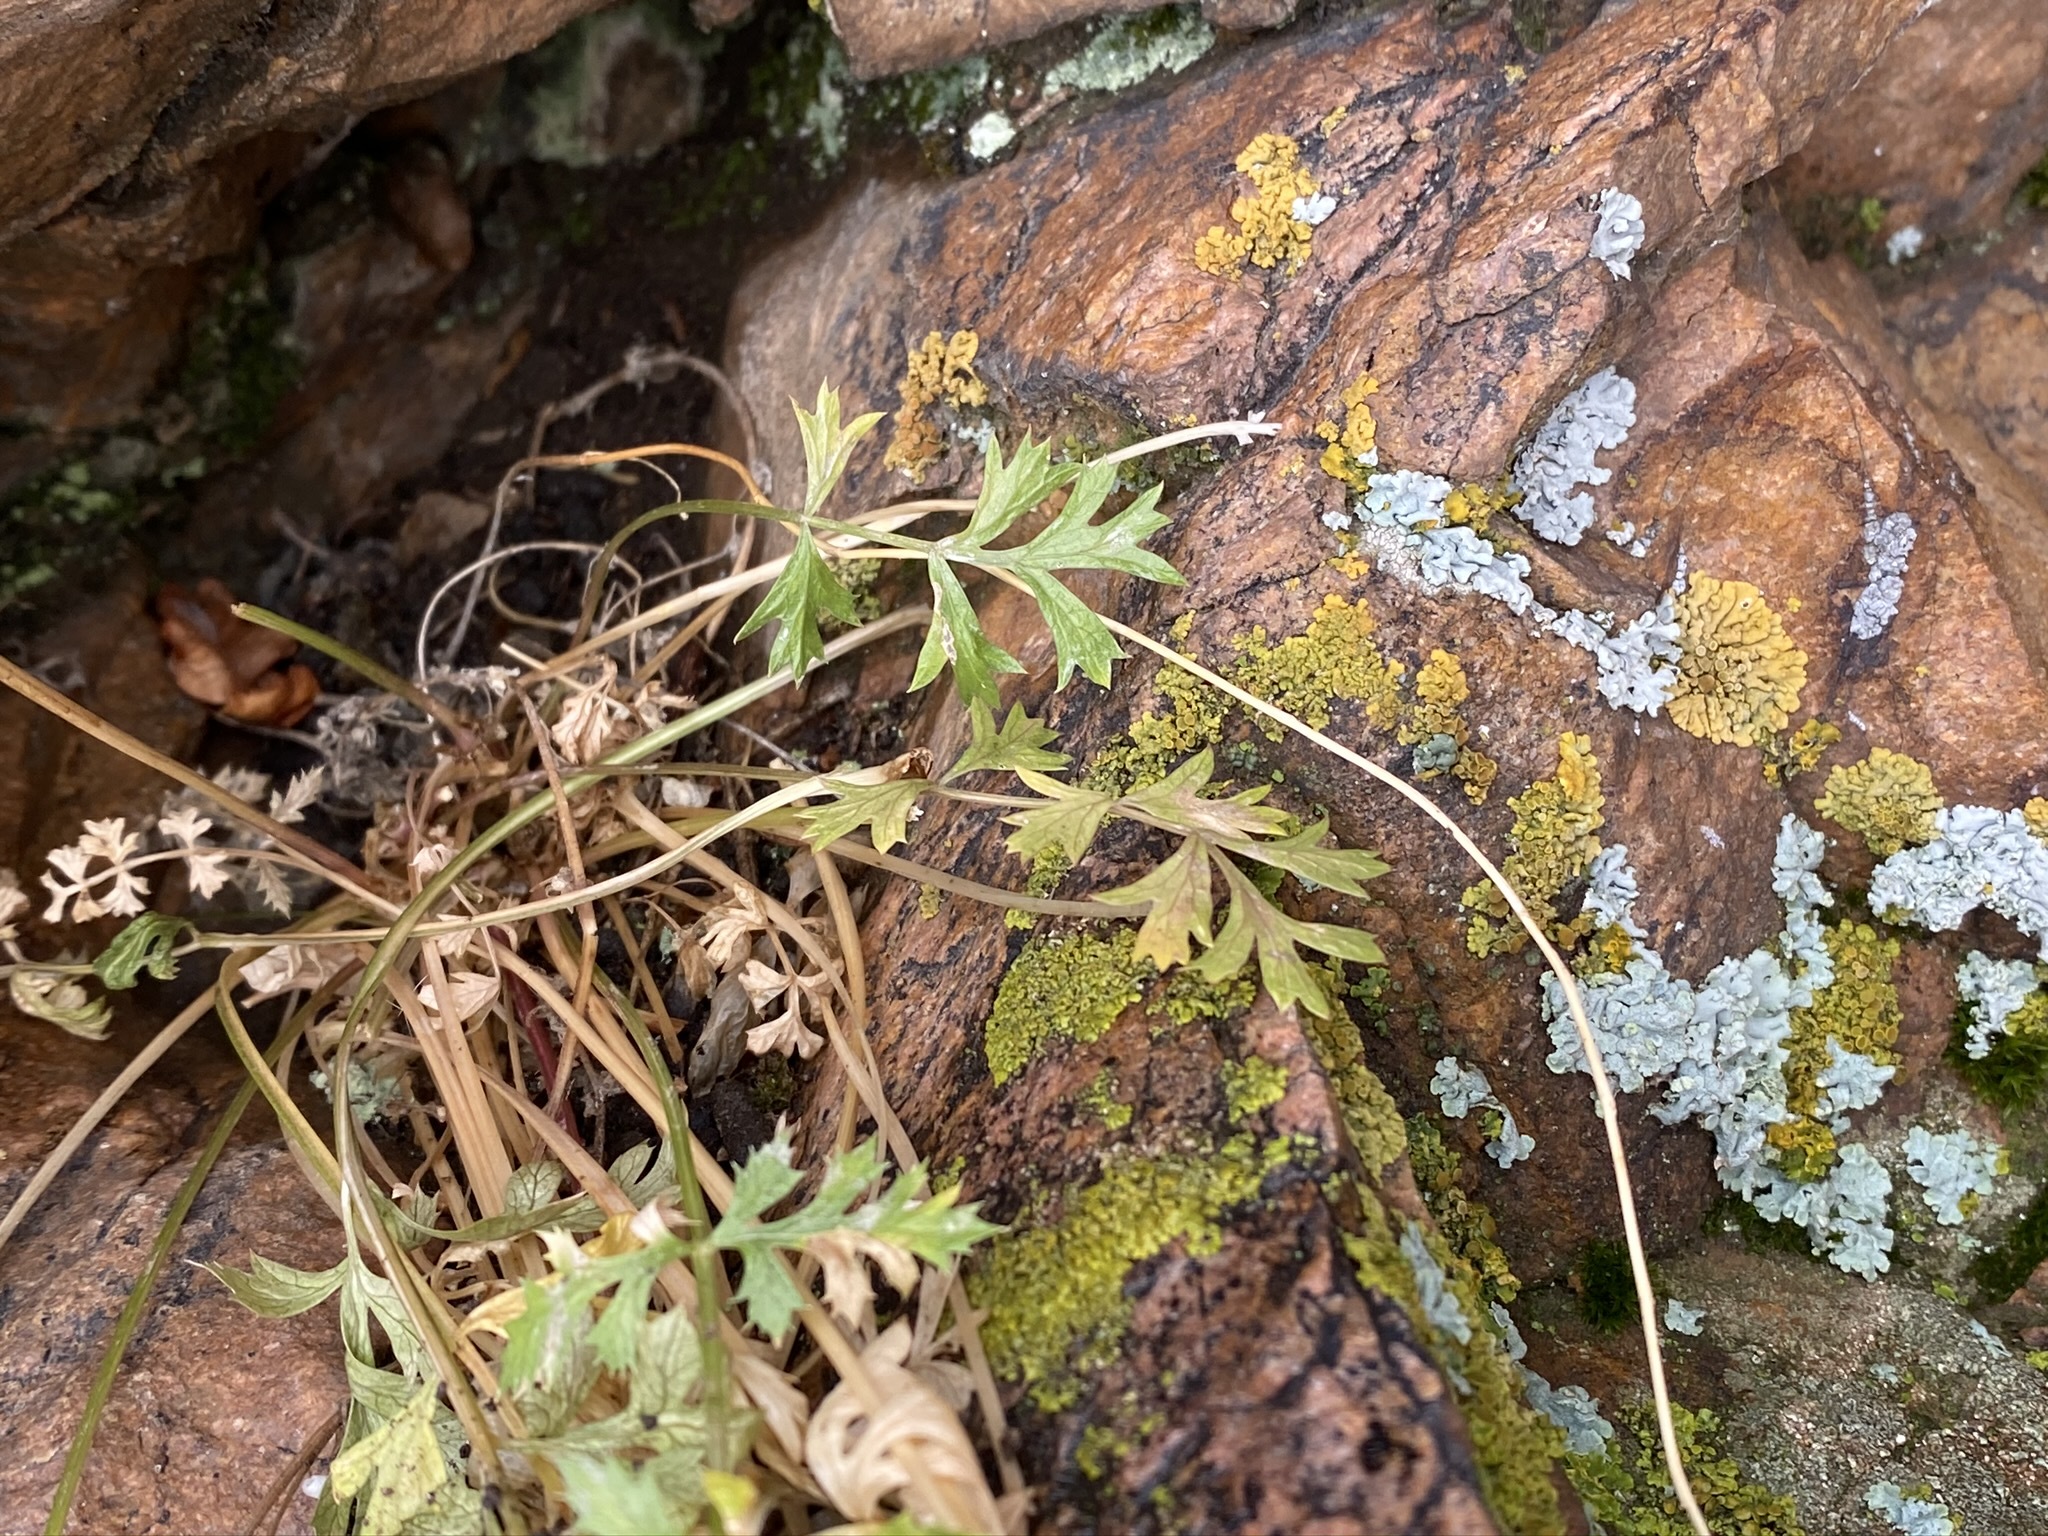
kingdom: Plantae
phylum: Tracheophyta
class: Magnoliopsida
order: Apiales
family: Apiaceae
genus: Cymopterus
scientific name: Cymopterus hallii
